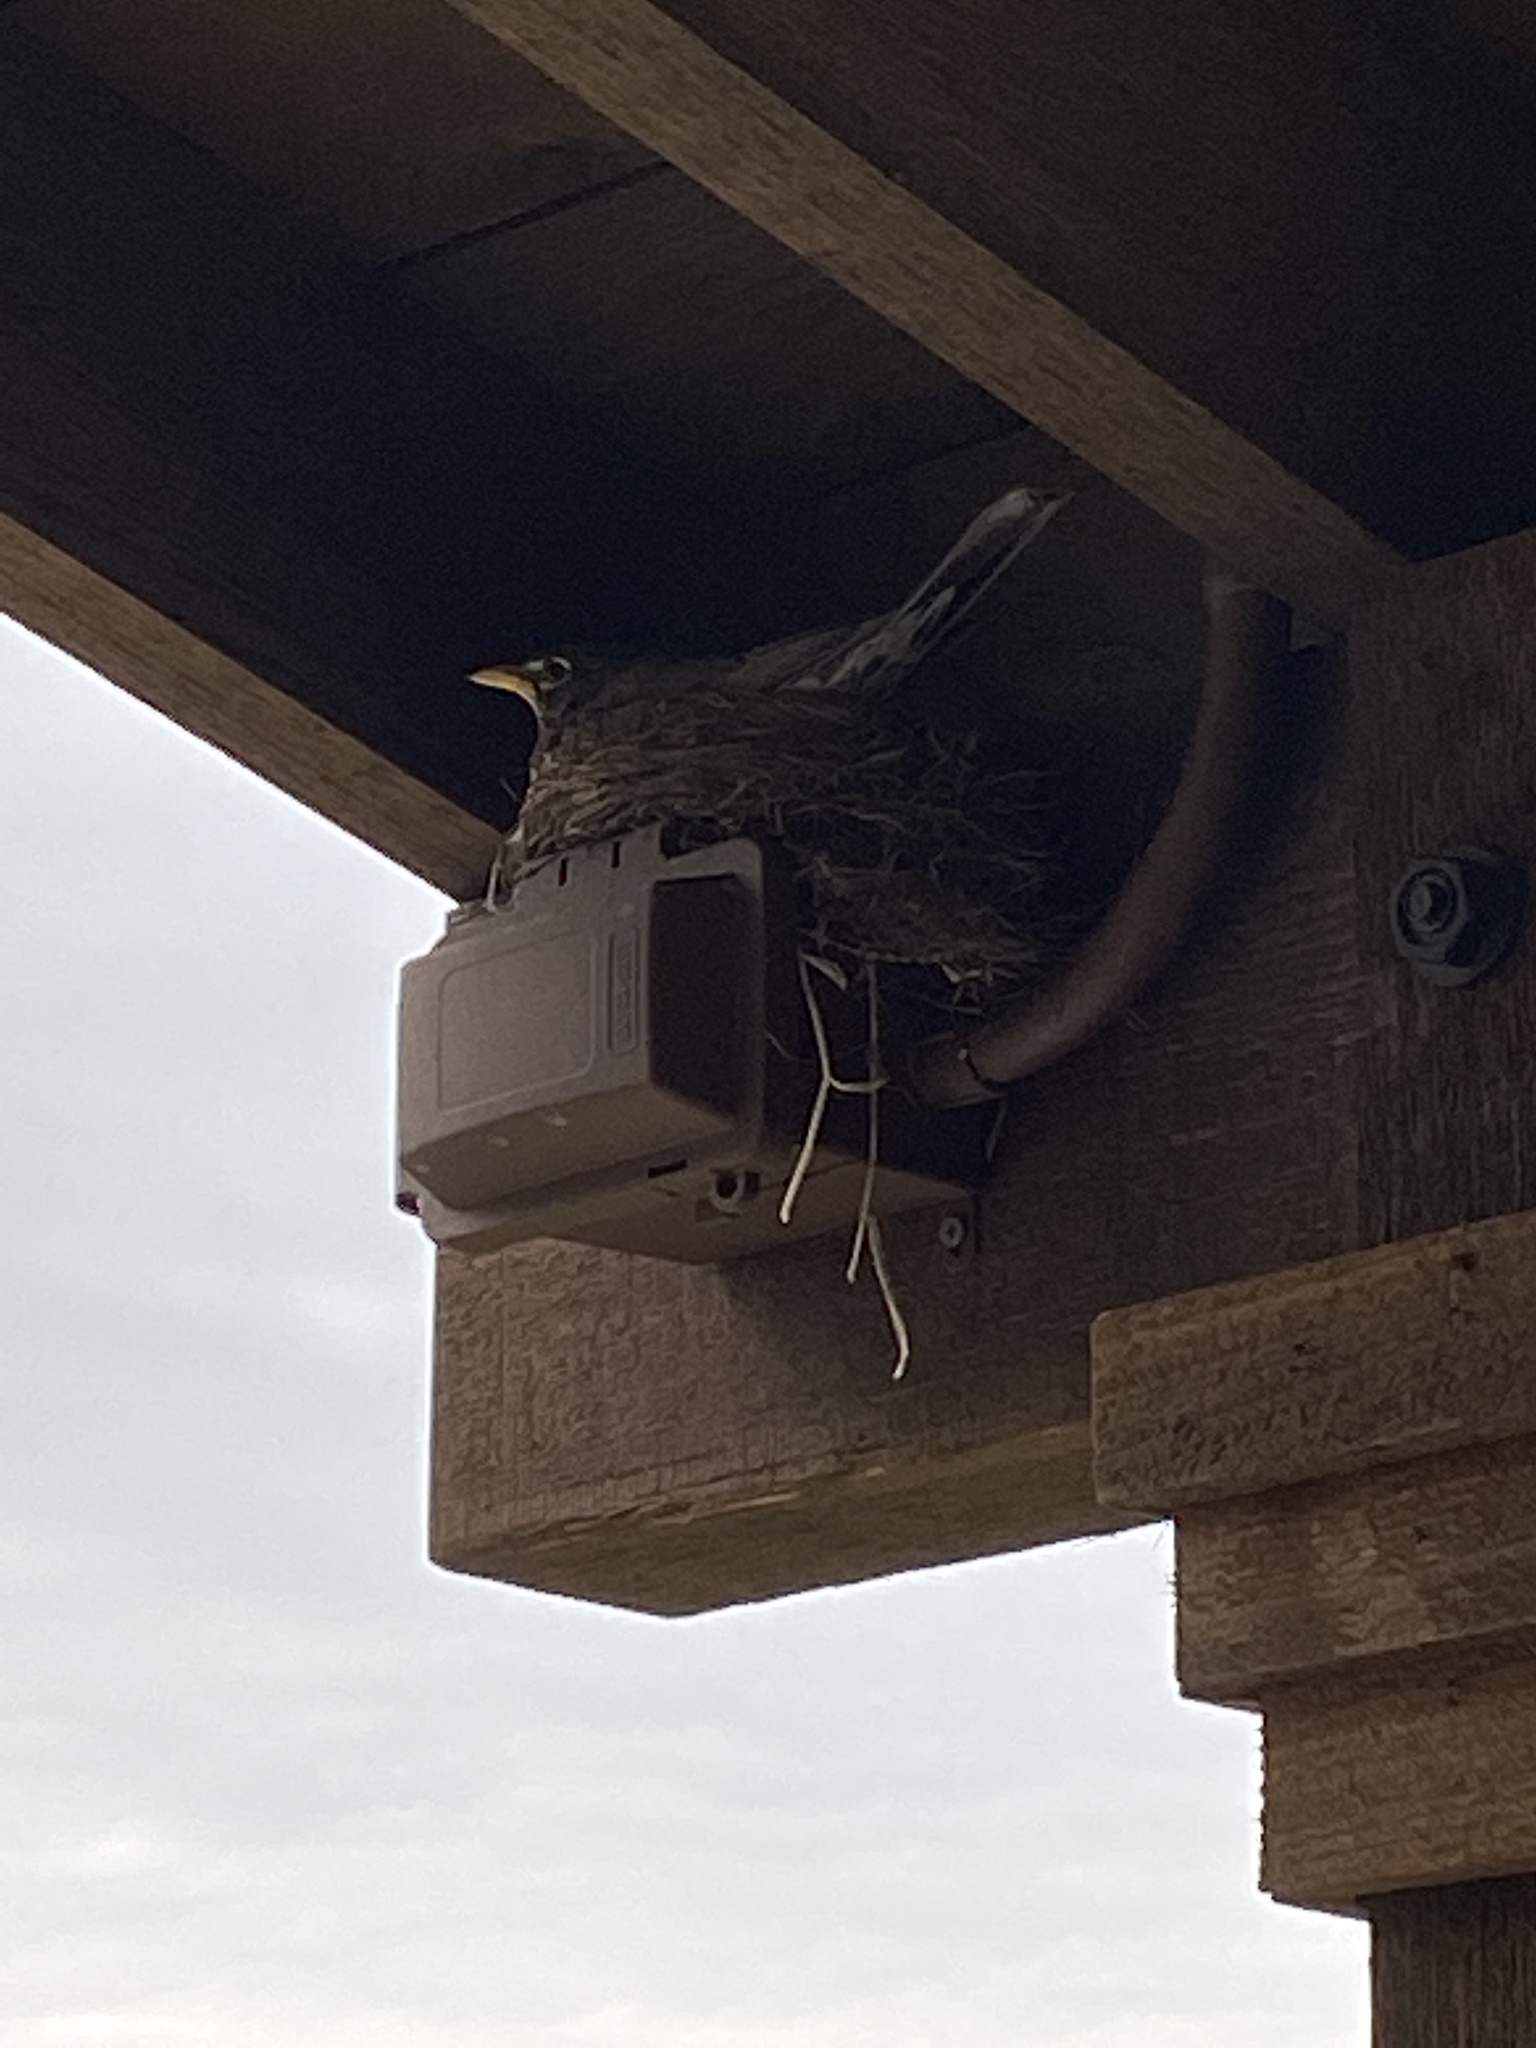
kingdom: Animalia
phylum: Chordata
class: Aves
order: Passeriformes
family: Turdidae
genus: Turdus
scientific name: Turdus migratorius
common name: American robin
